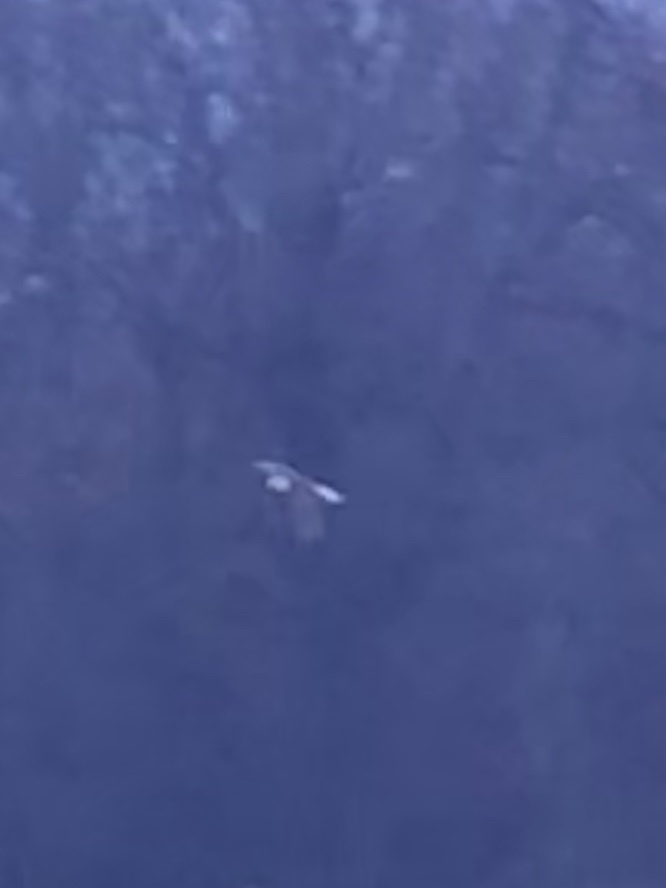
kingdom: Animalia
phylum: Chordata
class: Aves
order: Accipitriformes
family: Accipitridae
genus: Haliaeetus
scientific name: Haliaeetus leucocephalus
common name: Bald eagle
